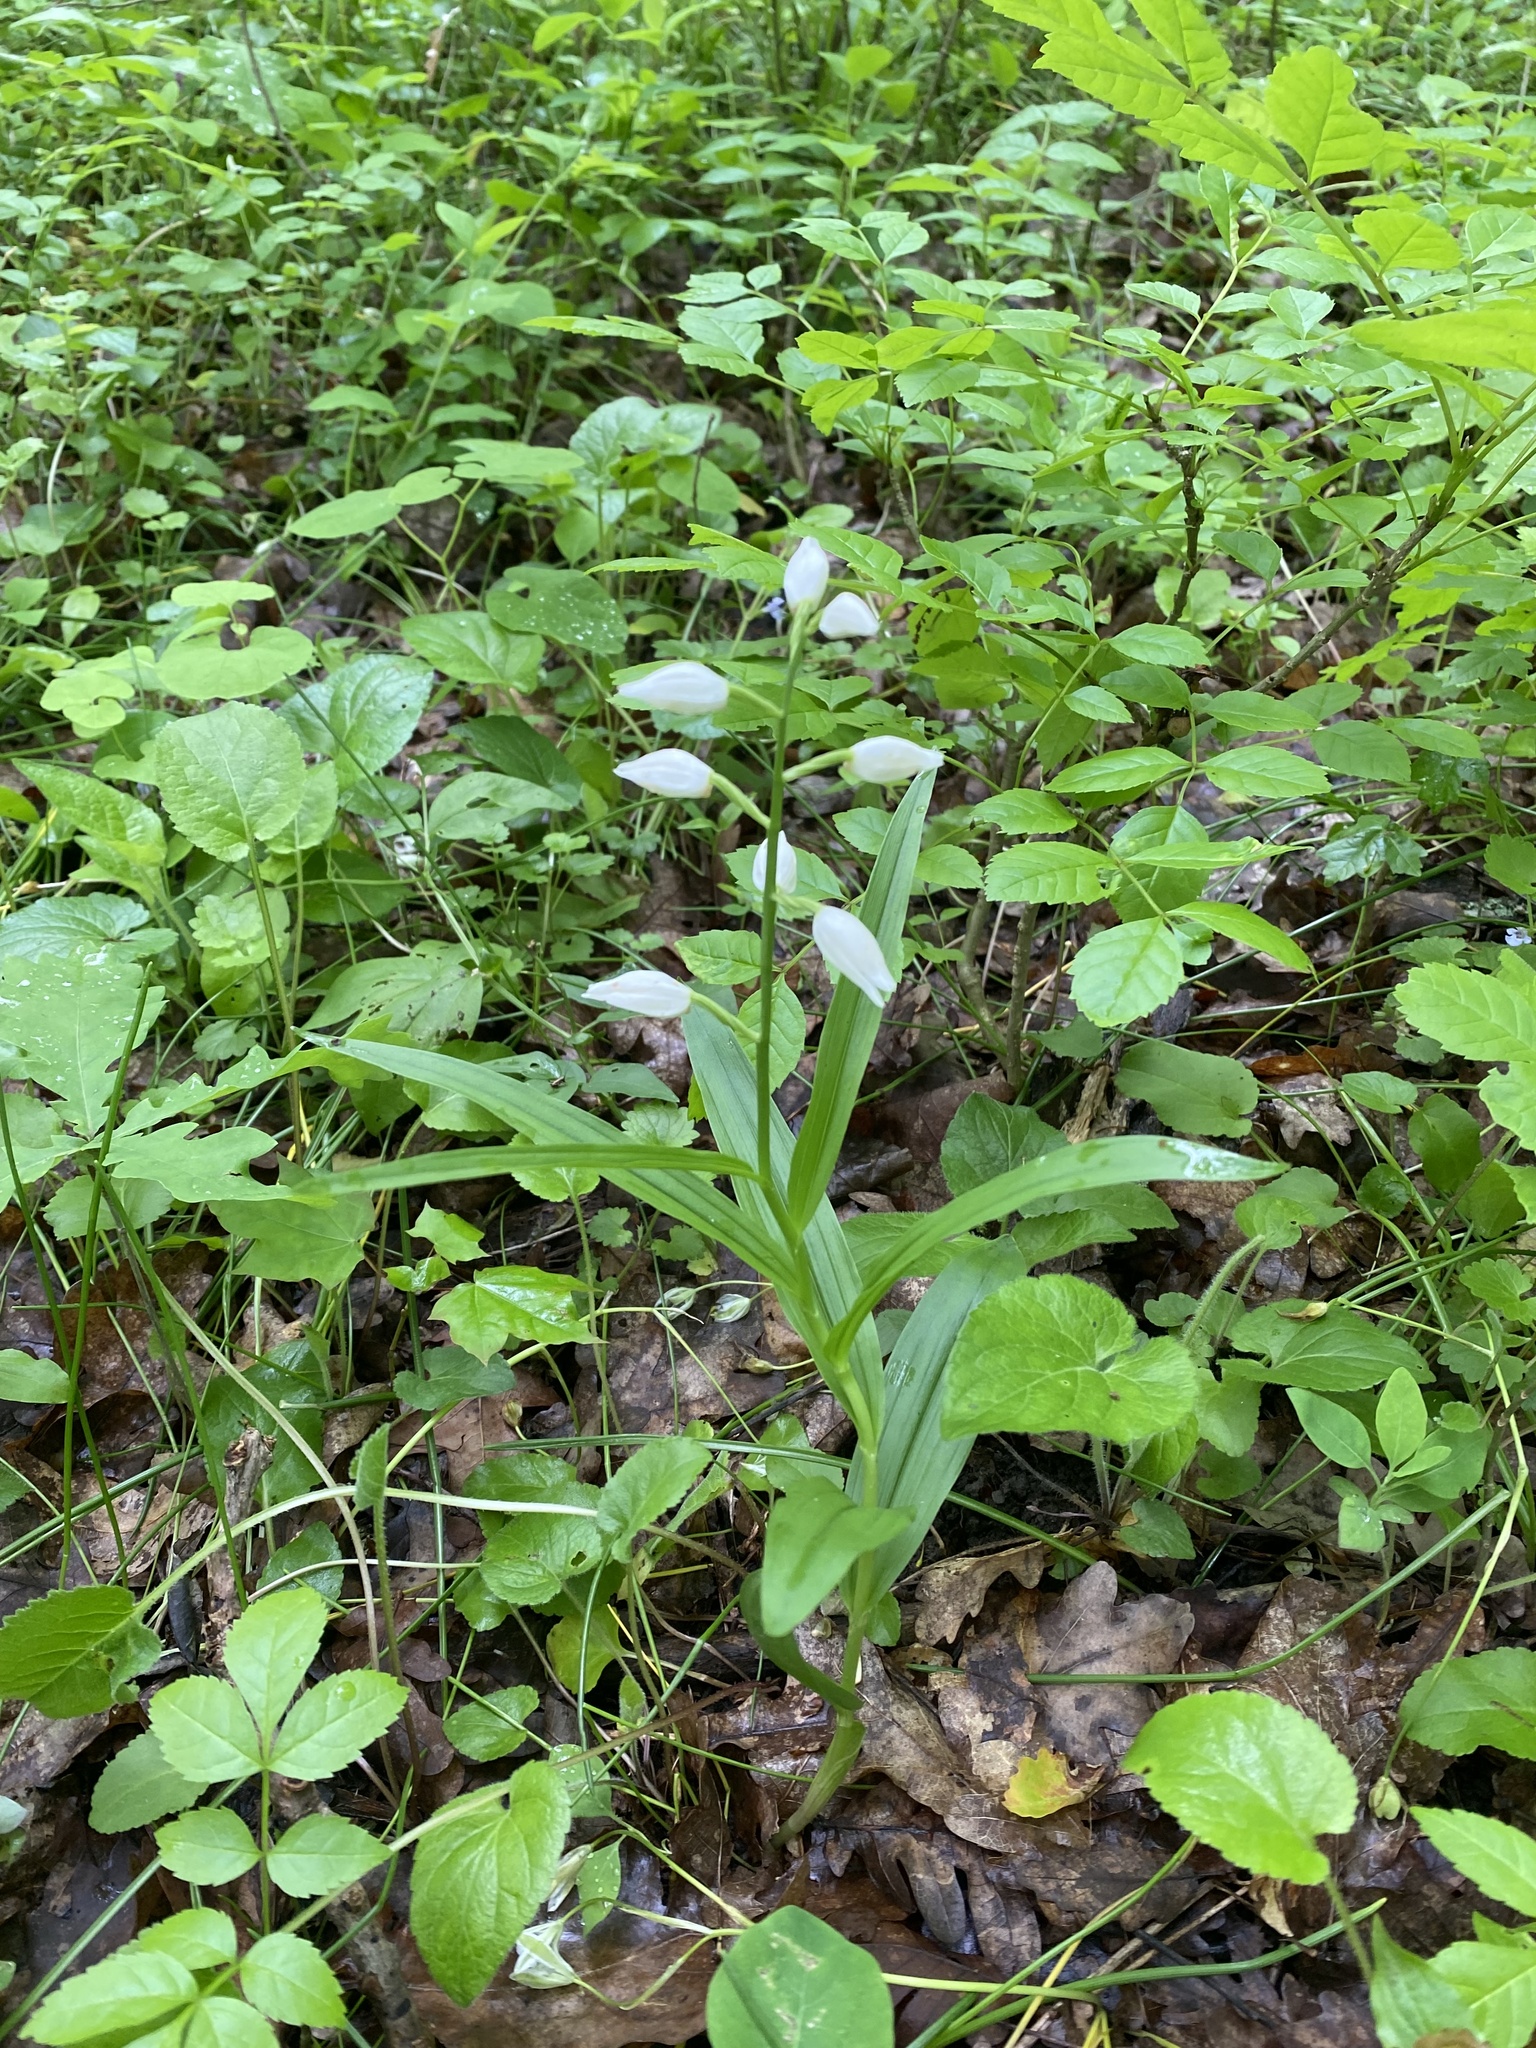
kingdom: Plantae
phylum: Tracheophyta
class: Liliopsida
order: Asparagales
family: Orchidaceae
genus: Cephalanthera
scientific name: Cephalanthera longifolia
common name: Narrow-leaved helleborine
